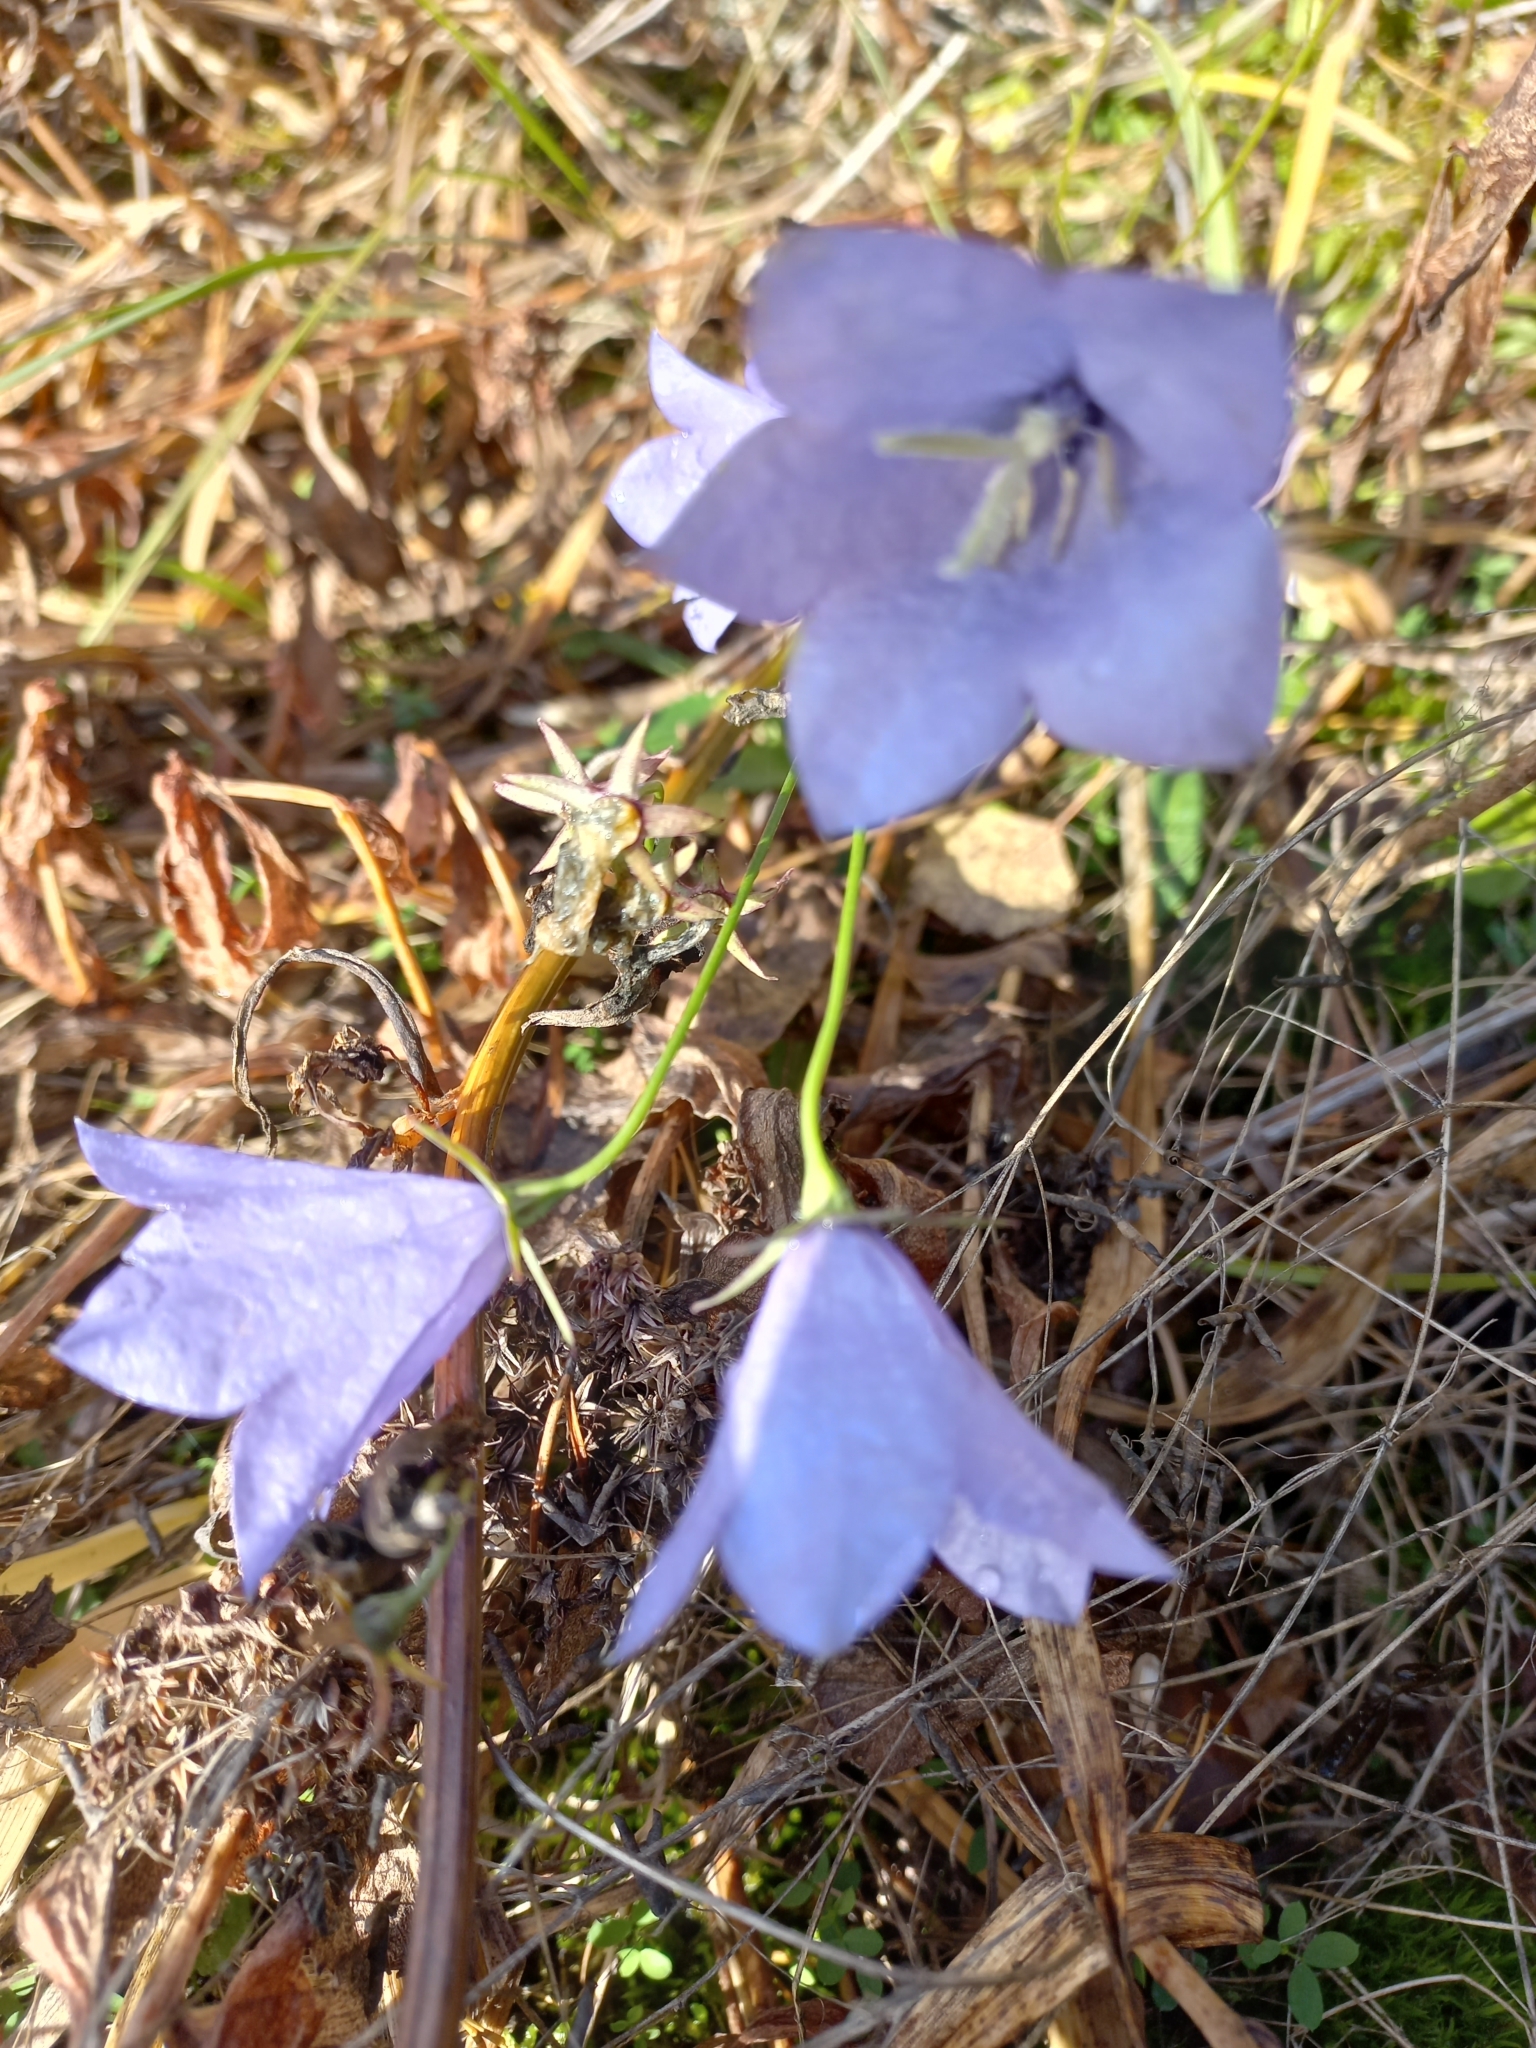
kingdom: Plantae
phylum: Tracheophyta
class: Magnoliopsida
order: Asterales
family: Campanulaceae
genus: Campanula
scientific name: Campanula persicifolia
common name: Peach-leaved bellflower
